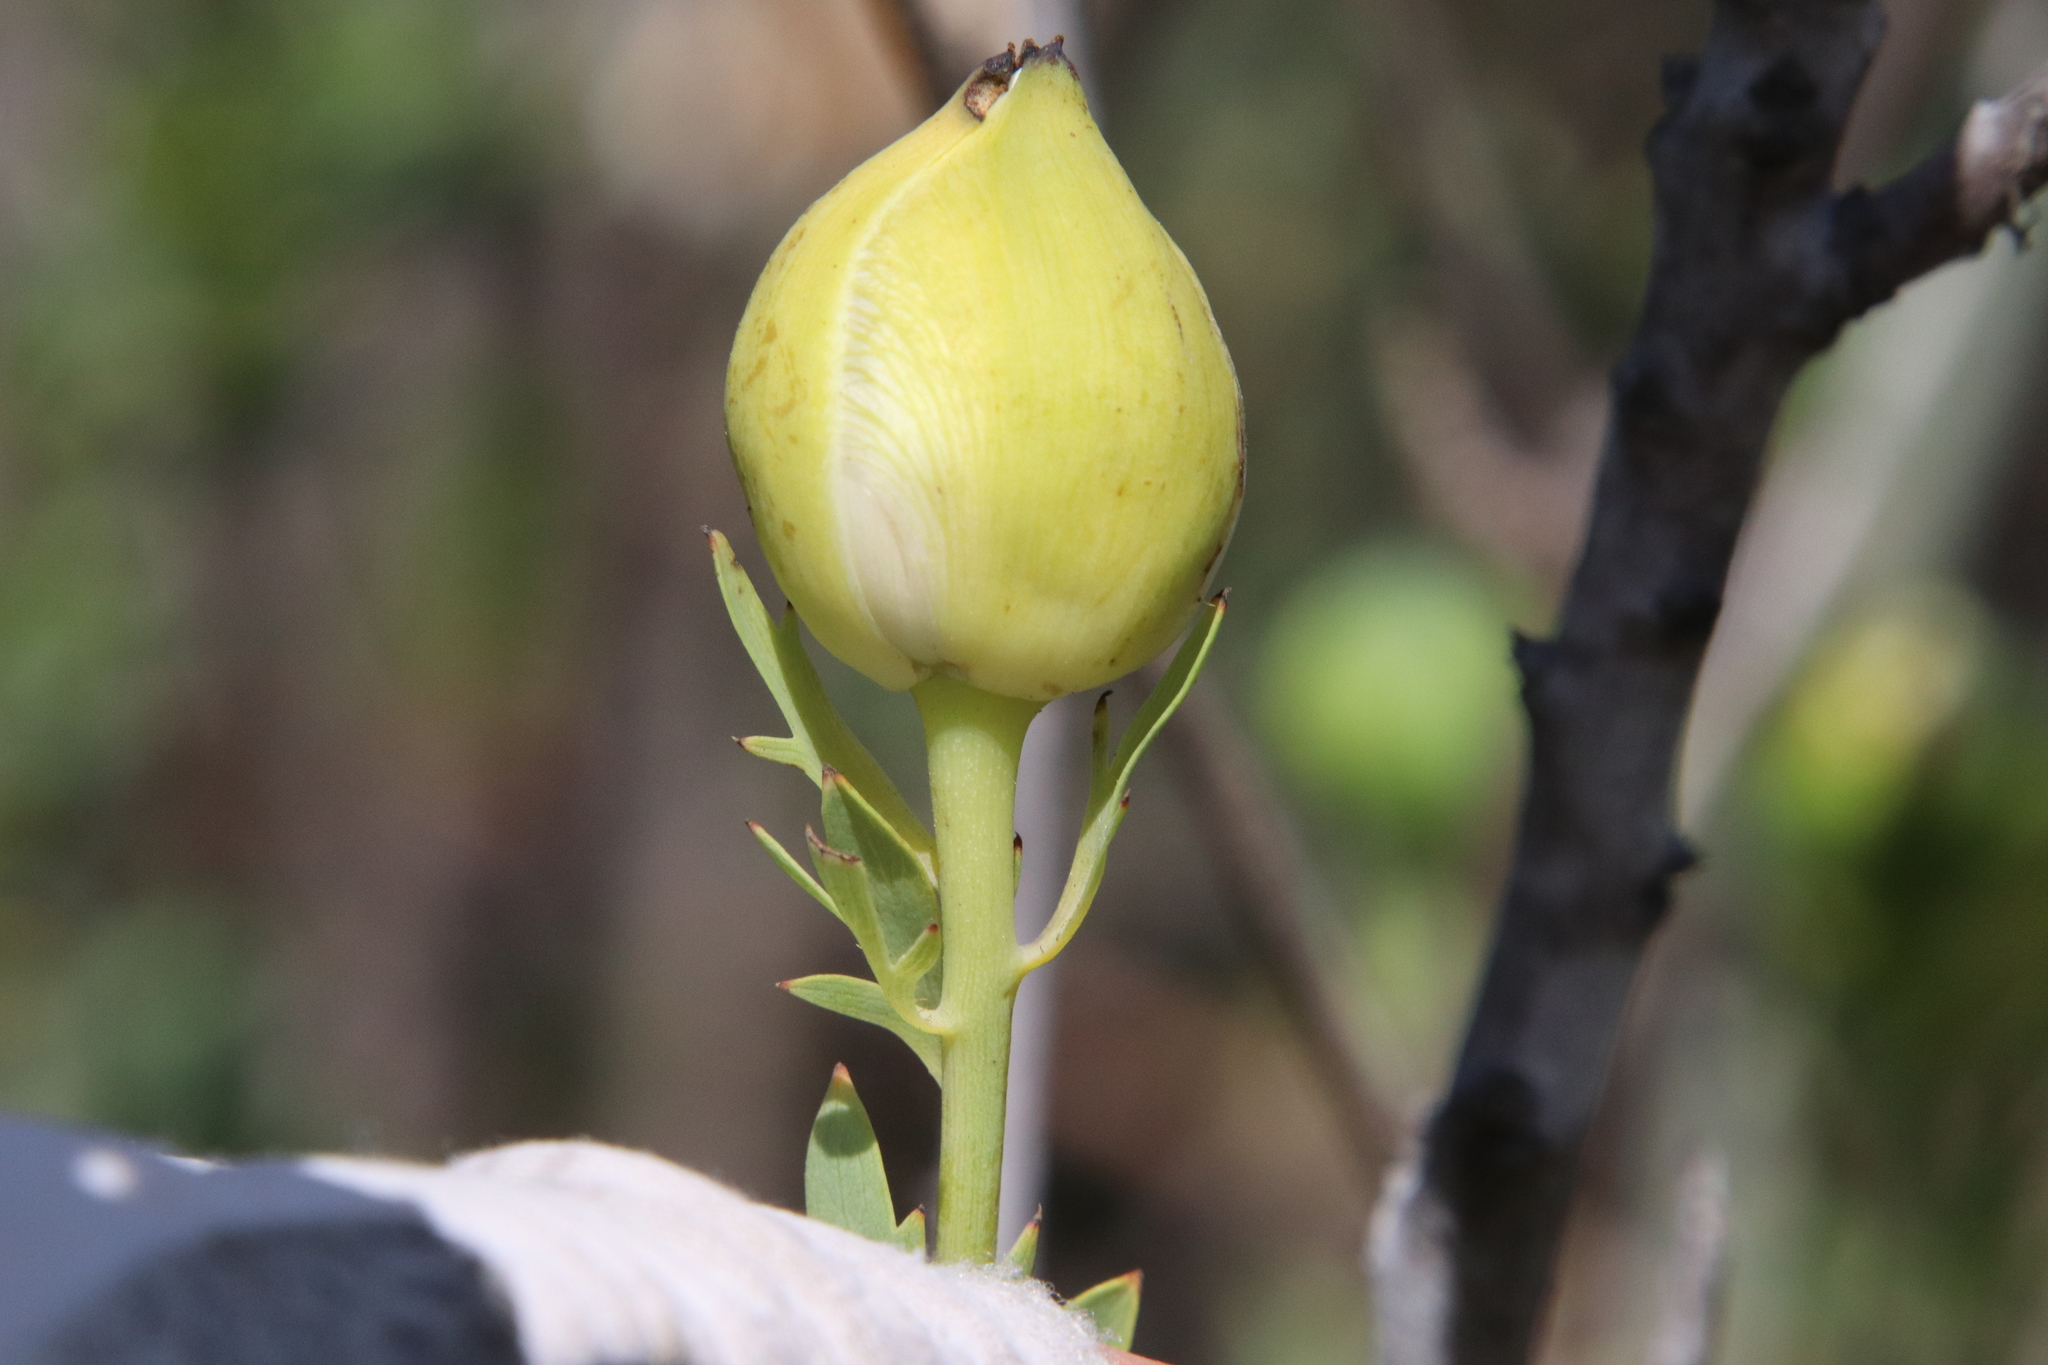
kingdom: Plantae
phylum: Tracheophyta
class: Magnoliopsida
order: Ranunculales
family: Papaveraceae
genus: Romneya
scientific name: Romneya coulteri
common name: California tree-poppy
